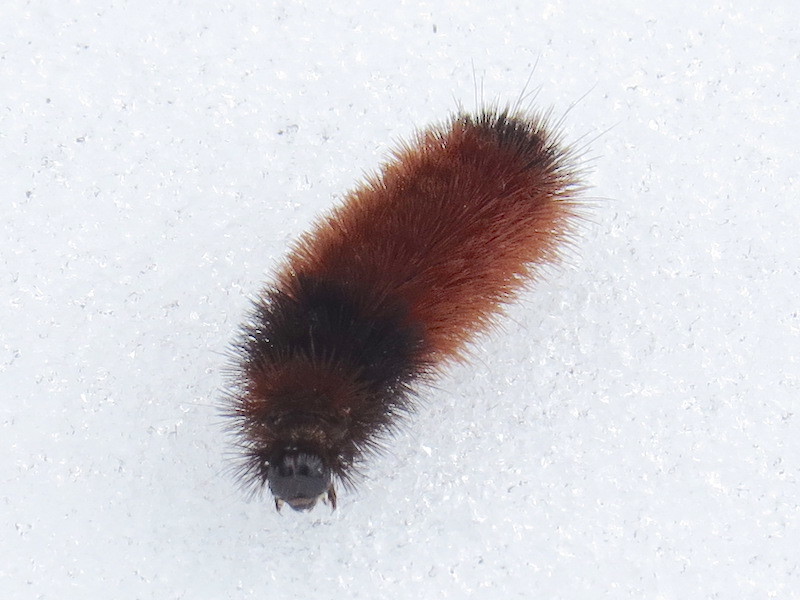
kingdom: Animalia
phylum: Arthropoda
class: Insecta
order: Lepidoptera
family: Erebidae
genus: Pyrrharctia
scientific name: Pyrrharctia isabella
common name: Isabella tiger moth
